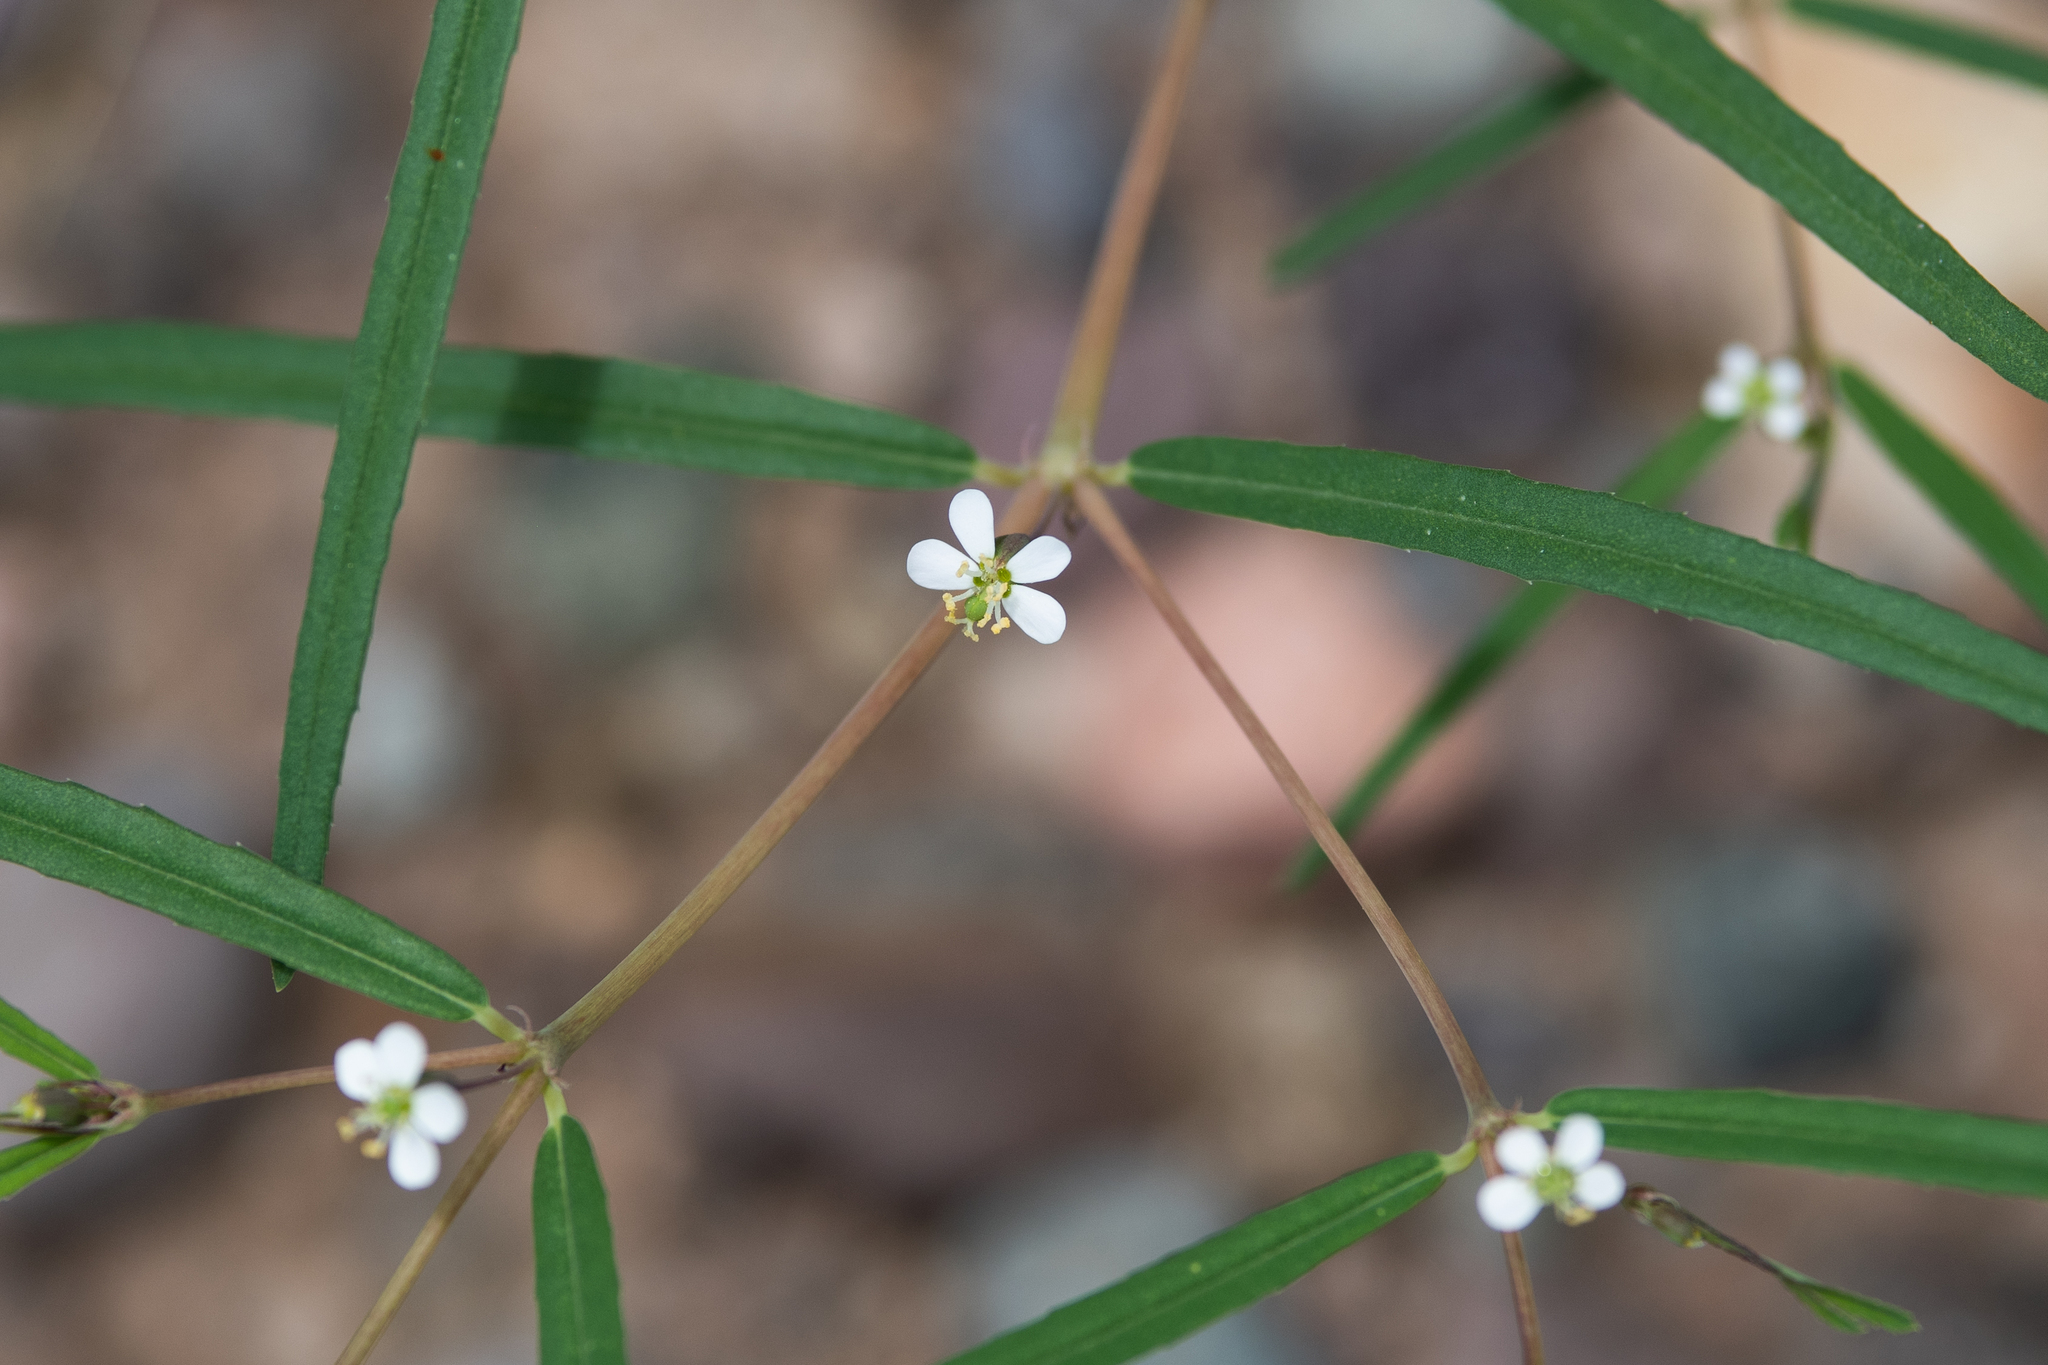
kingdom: Plantae
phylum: Tracheophyta
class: Magnoliopsida
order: Malpighiales
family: Euphorbiaceae
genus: Euphorbia
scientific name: Euphorbia florida
